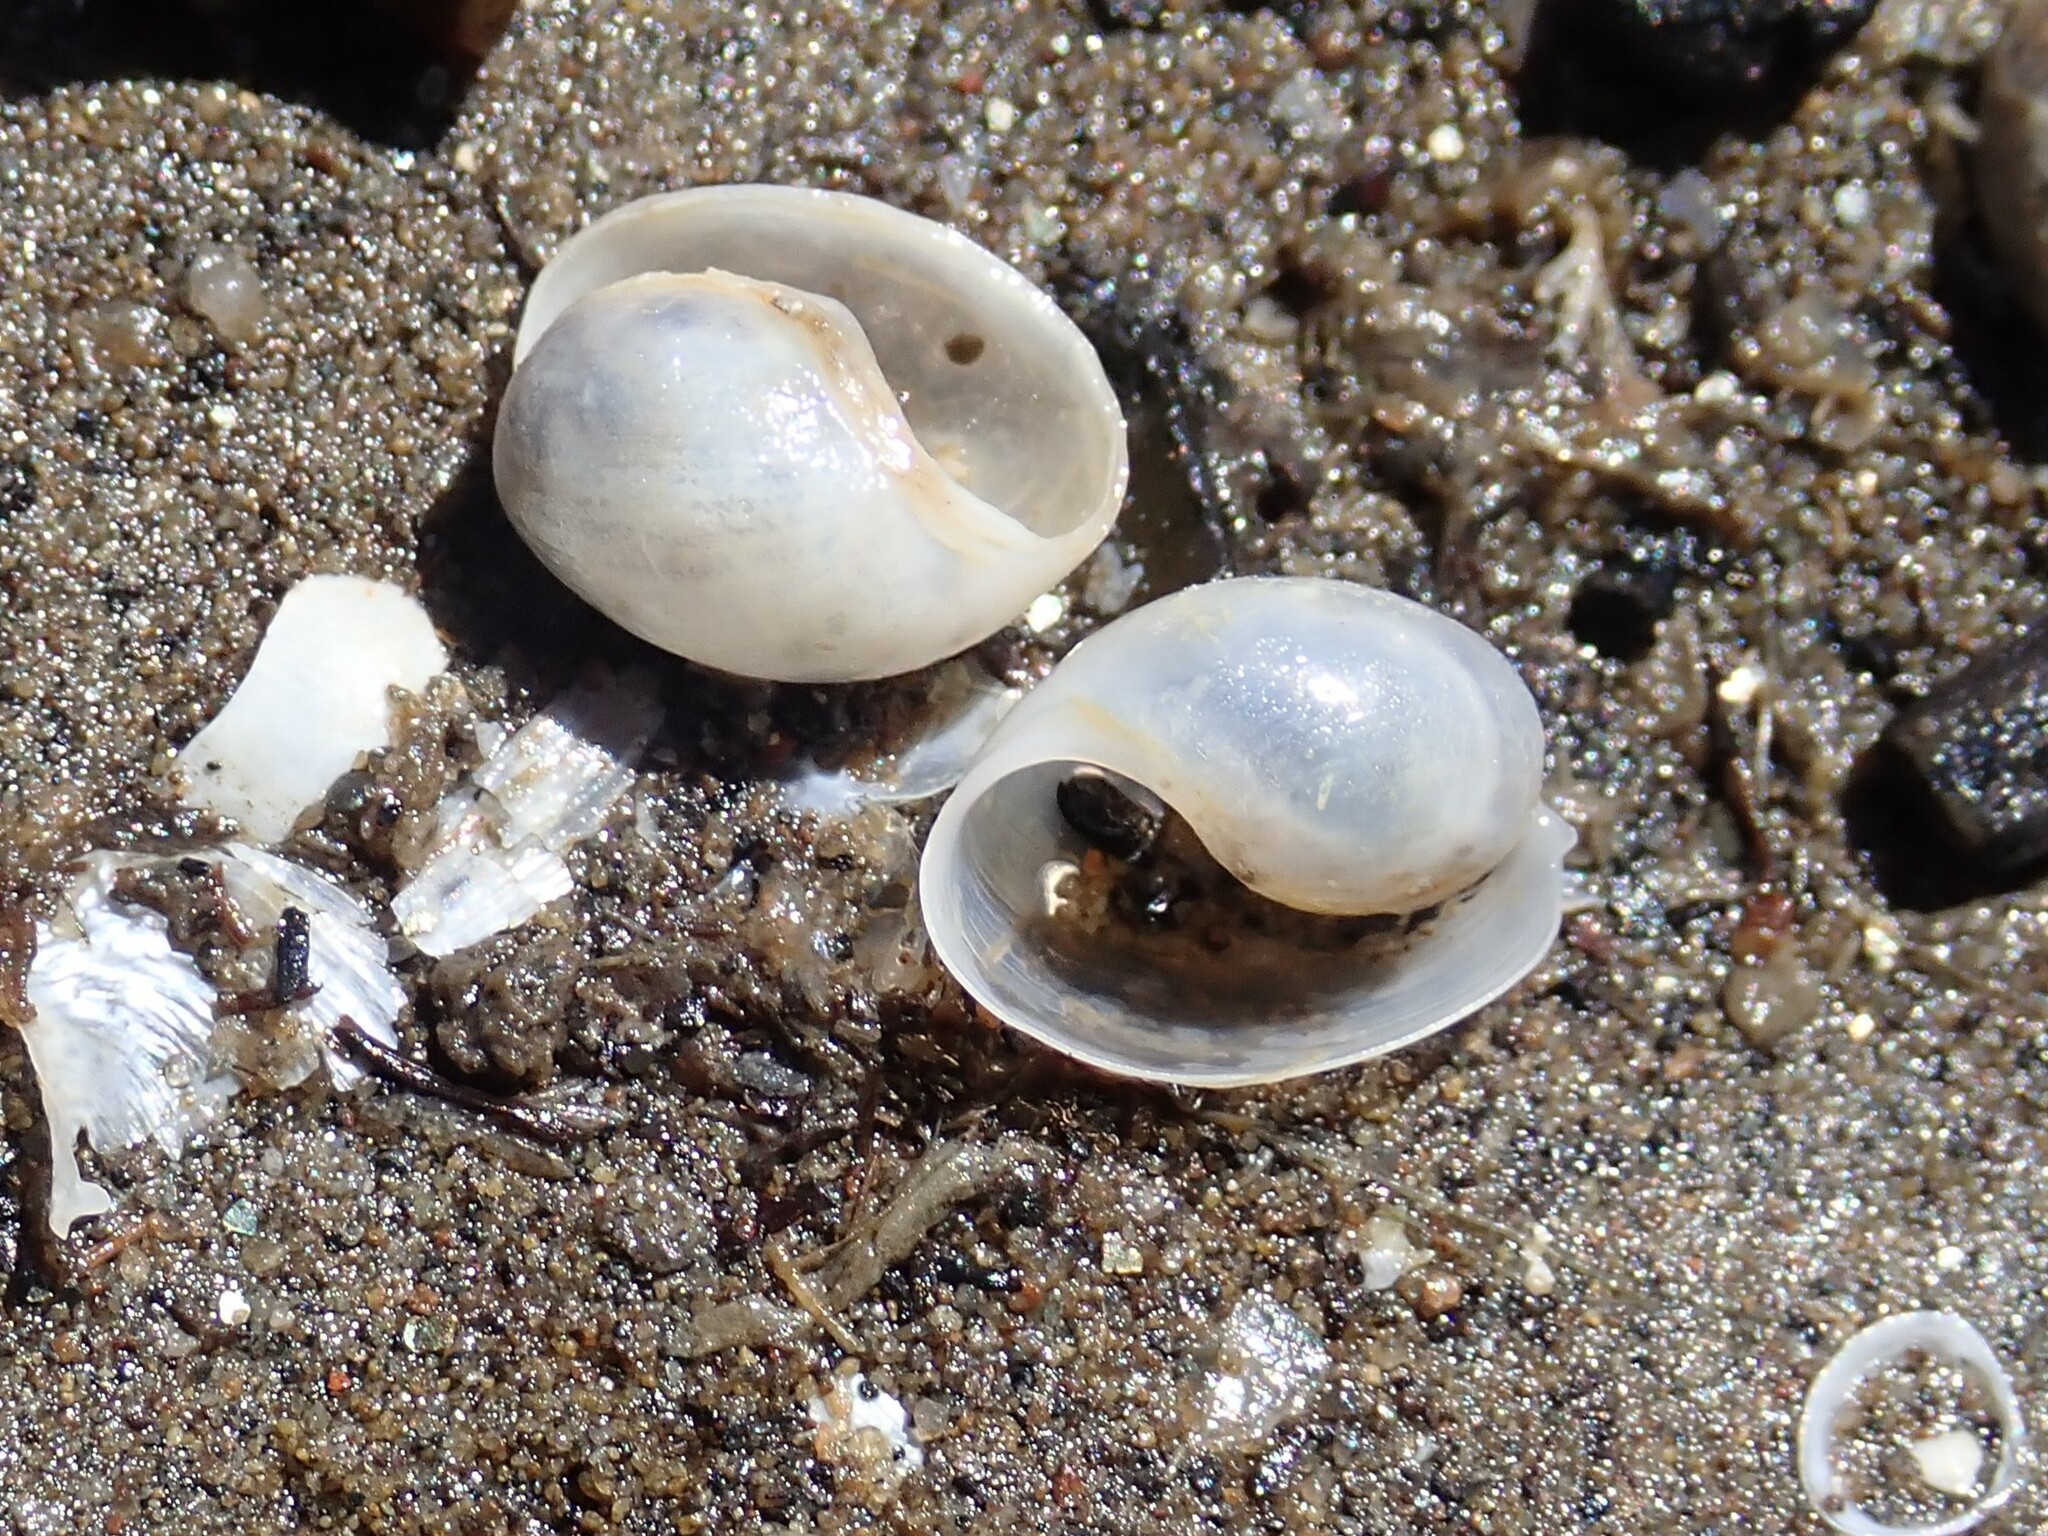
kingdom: Animalia
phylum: Mollusca
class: Gastropoda
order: Cephalaspidea
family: Haminoeidae
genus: Haloa
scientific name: Haloa japonica
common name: Japanese bubble snail
